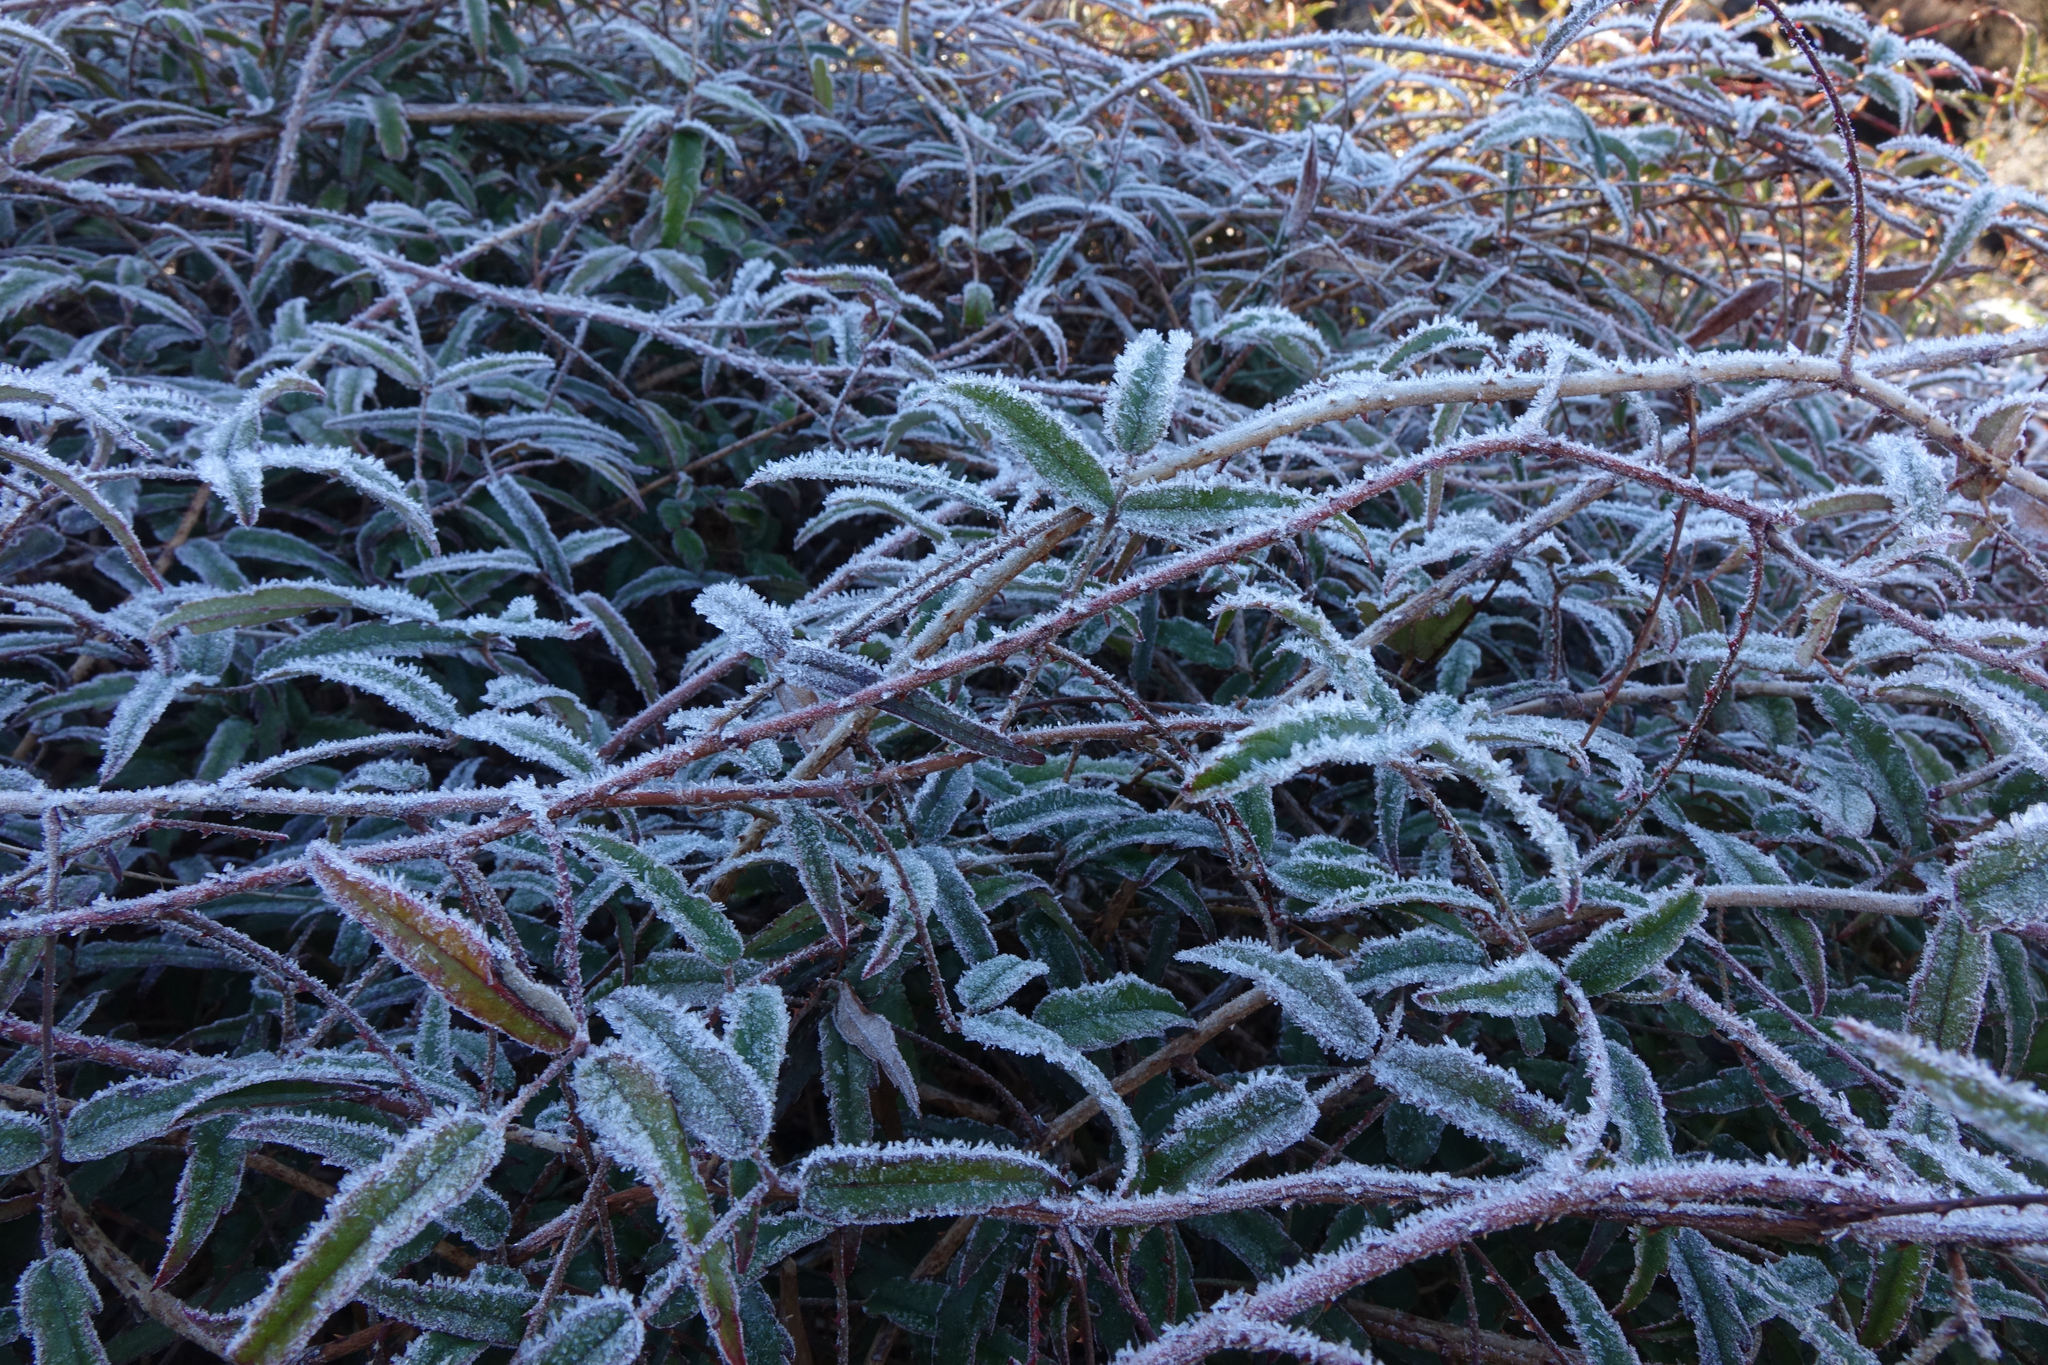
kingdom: Plantae
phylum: Tracheophyta
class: Magnoliopsida
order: Rosales
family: Rosaceae
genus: Rubus
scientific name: Rubus schmidelioides
